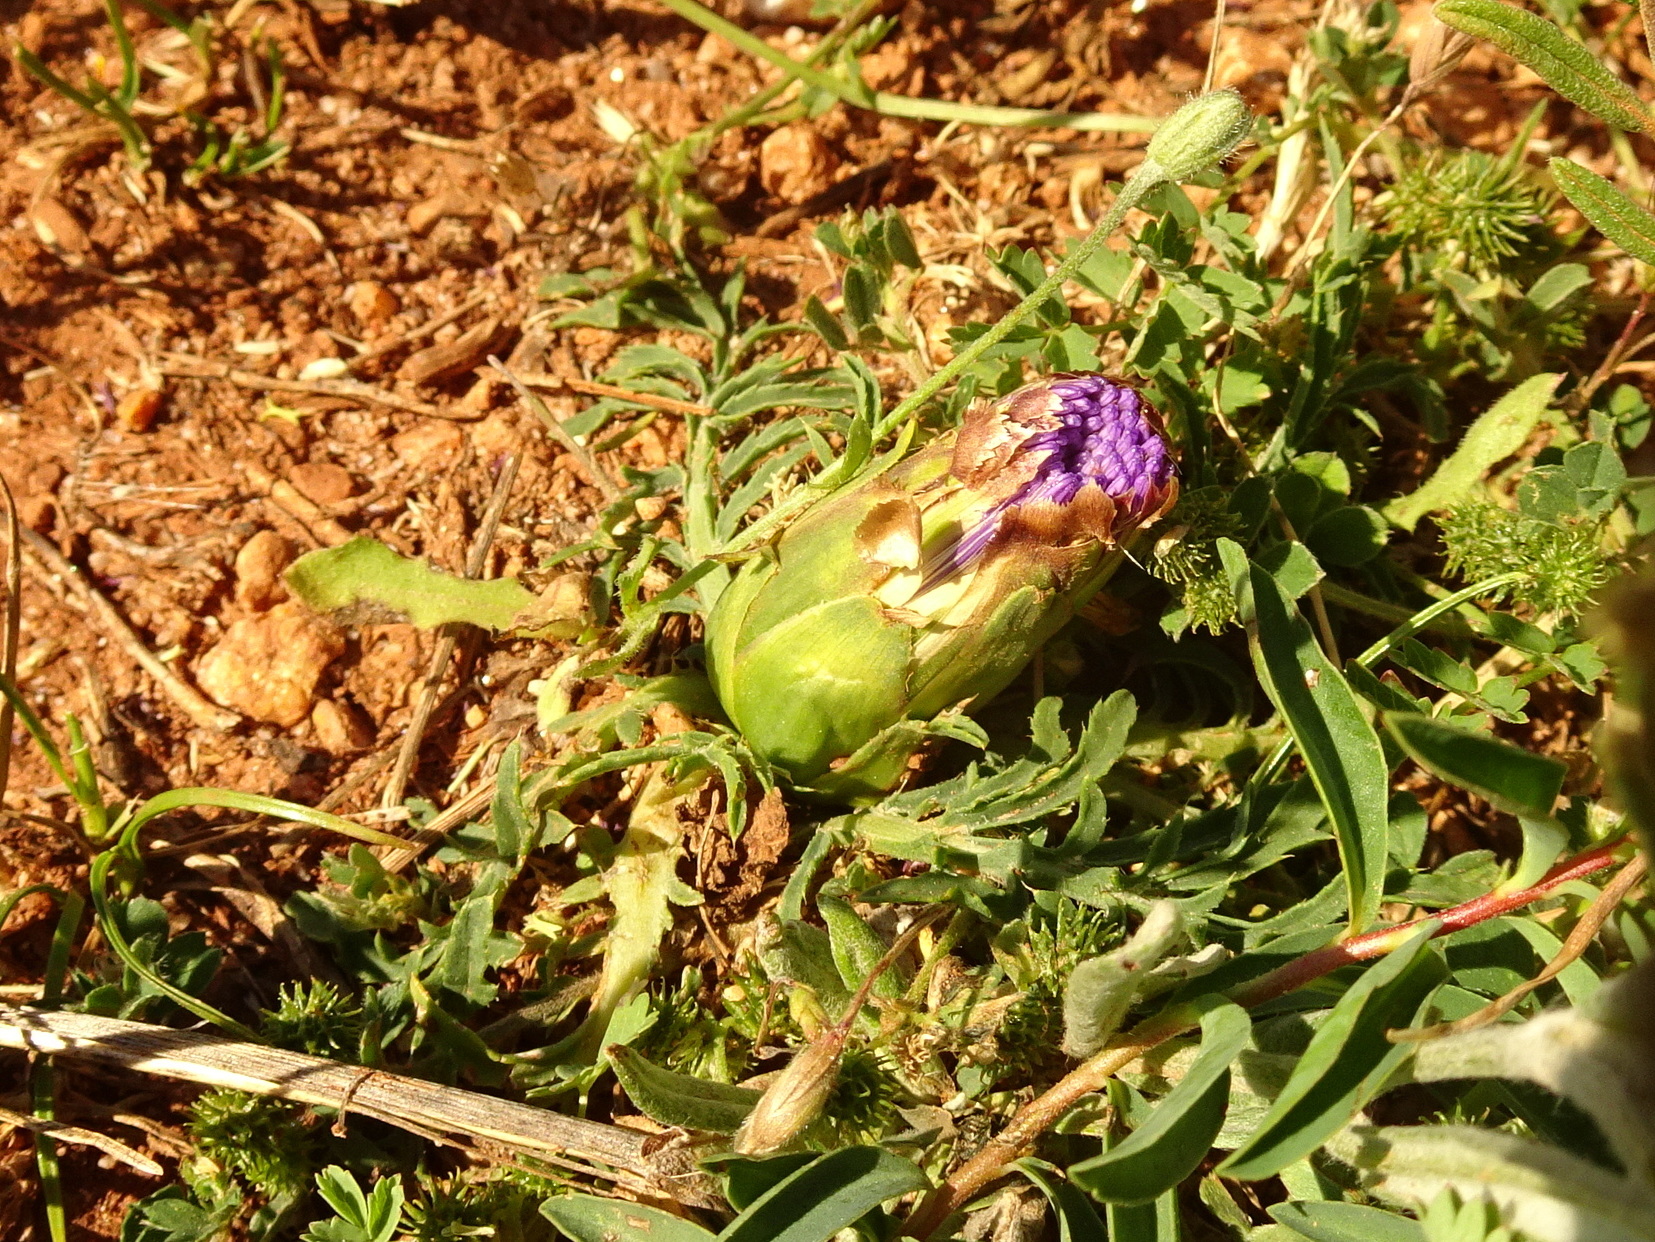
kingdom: Plantae
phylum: Tracheophyta
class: Magnoliopsida
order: Asterales
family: Asteraceae
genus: Carduncellus
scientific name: Carduncellus mitissimus
